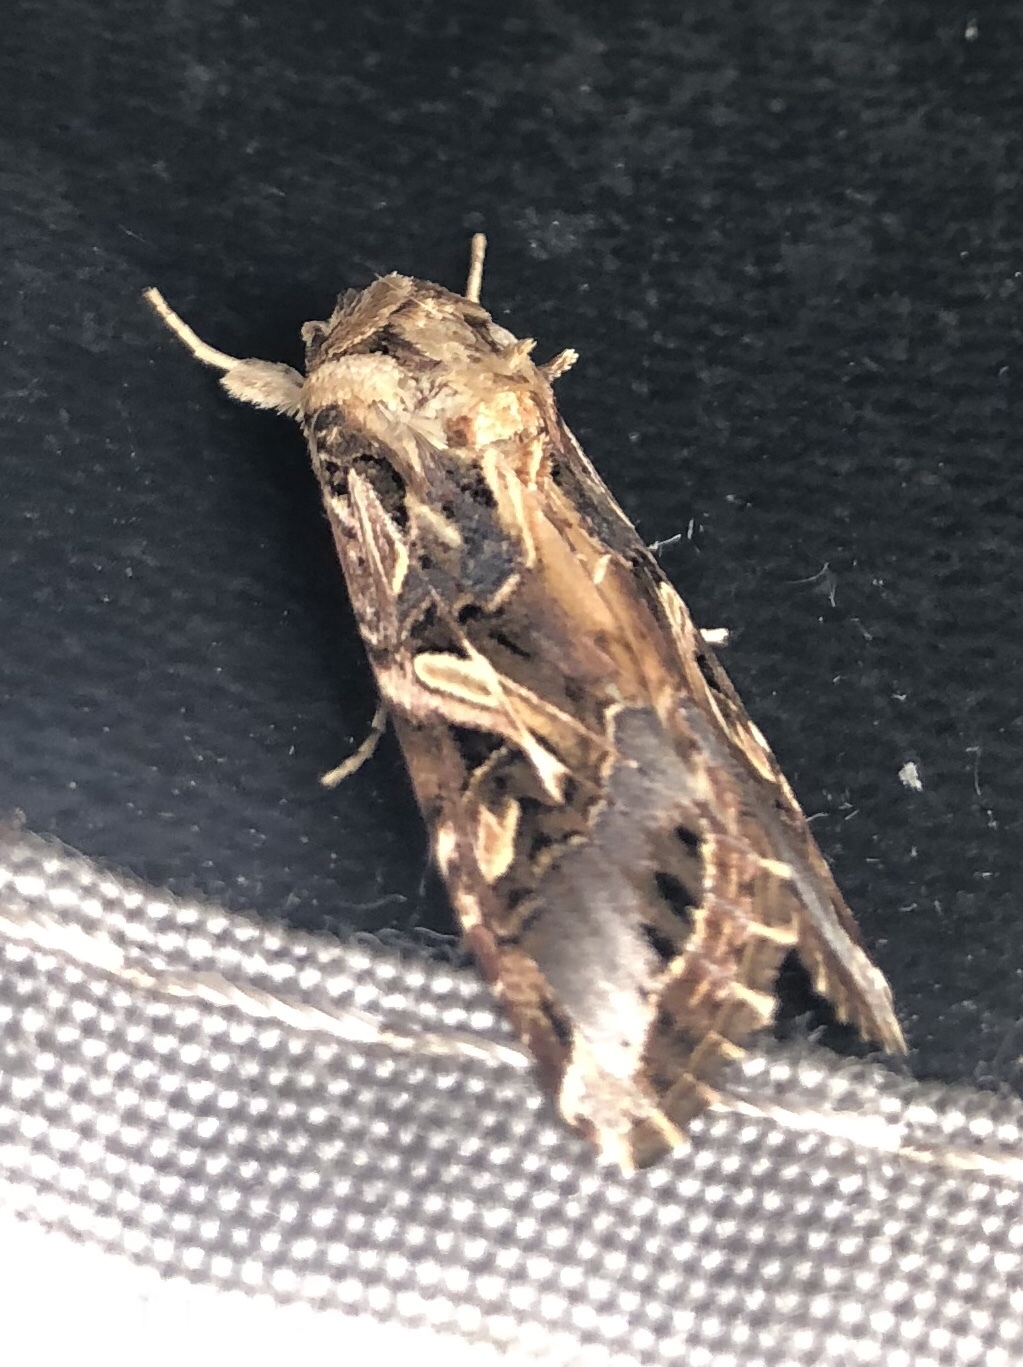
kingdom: Animalia
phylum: Arthropoda
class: Insecta
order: Lepidoptera
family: Noctuidae
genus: Spodoptera
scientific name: Spodoptera litura
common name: Asian cotton leafworm
